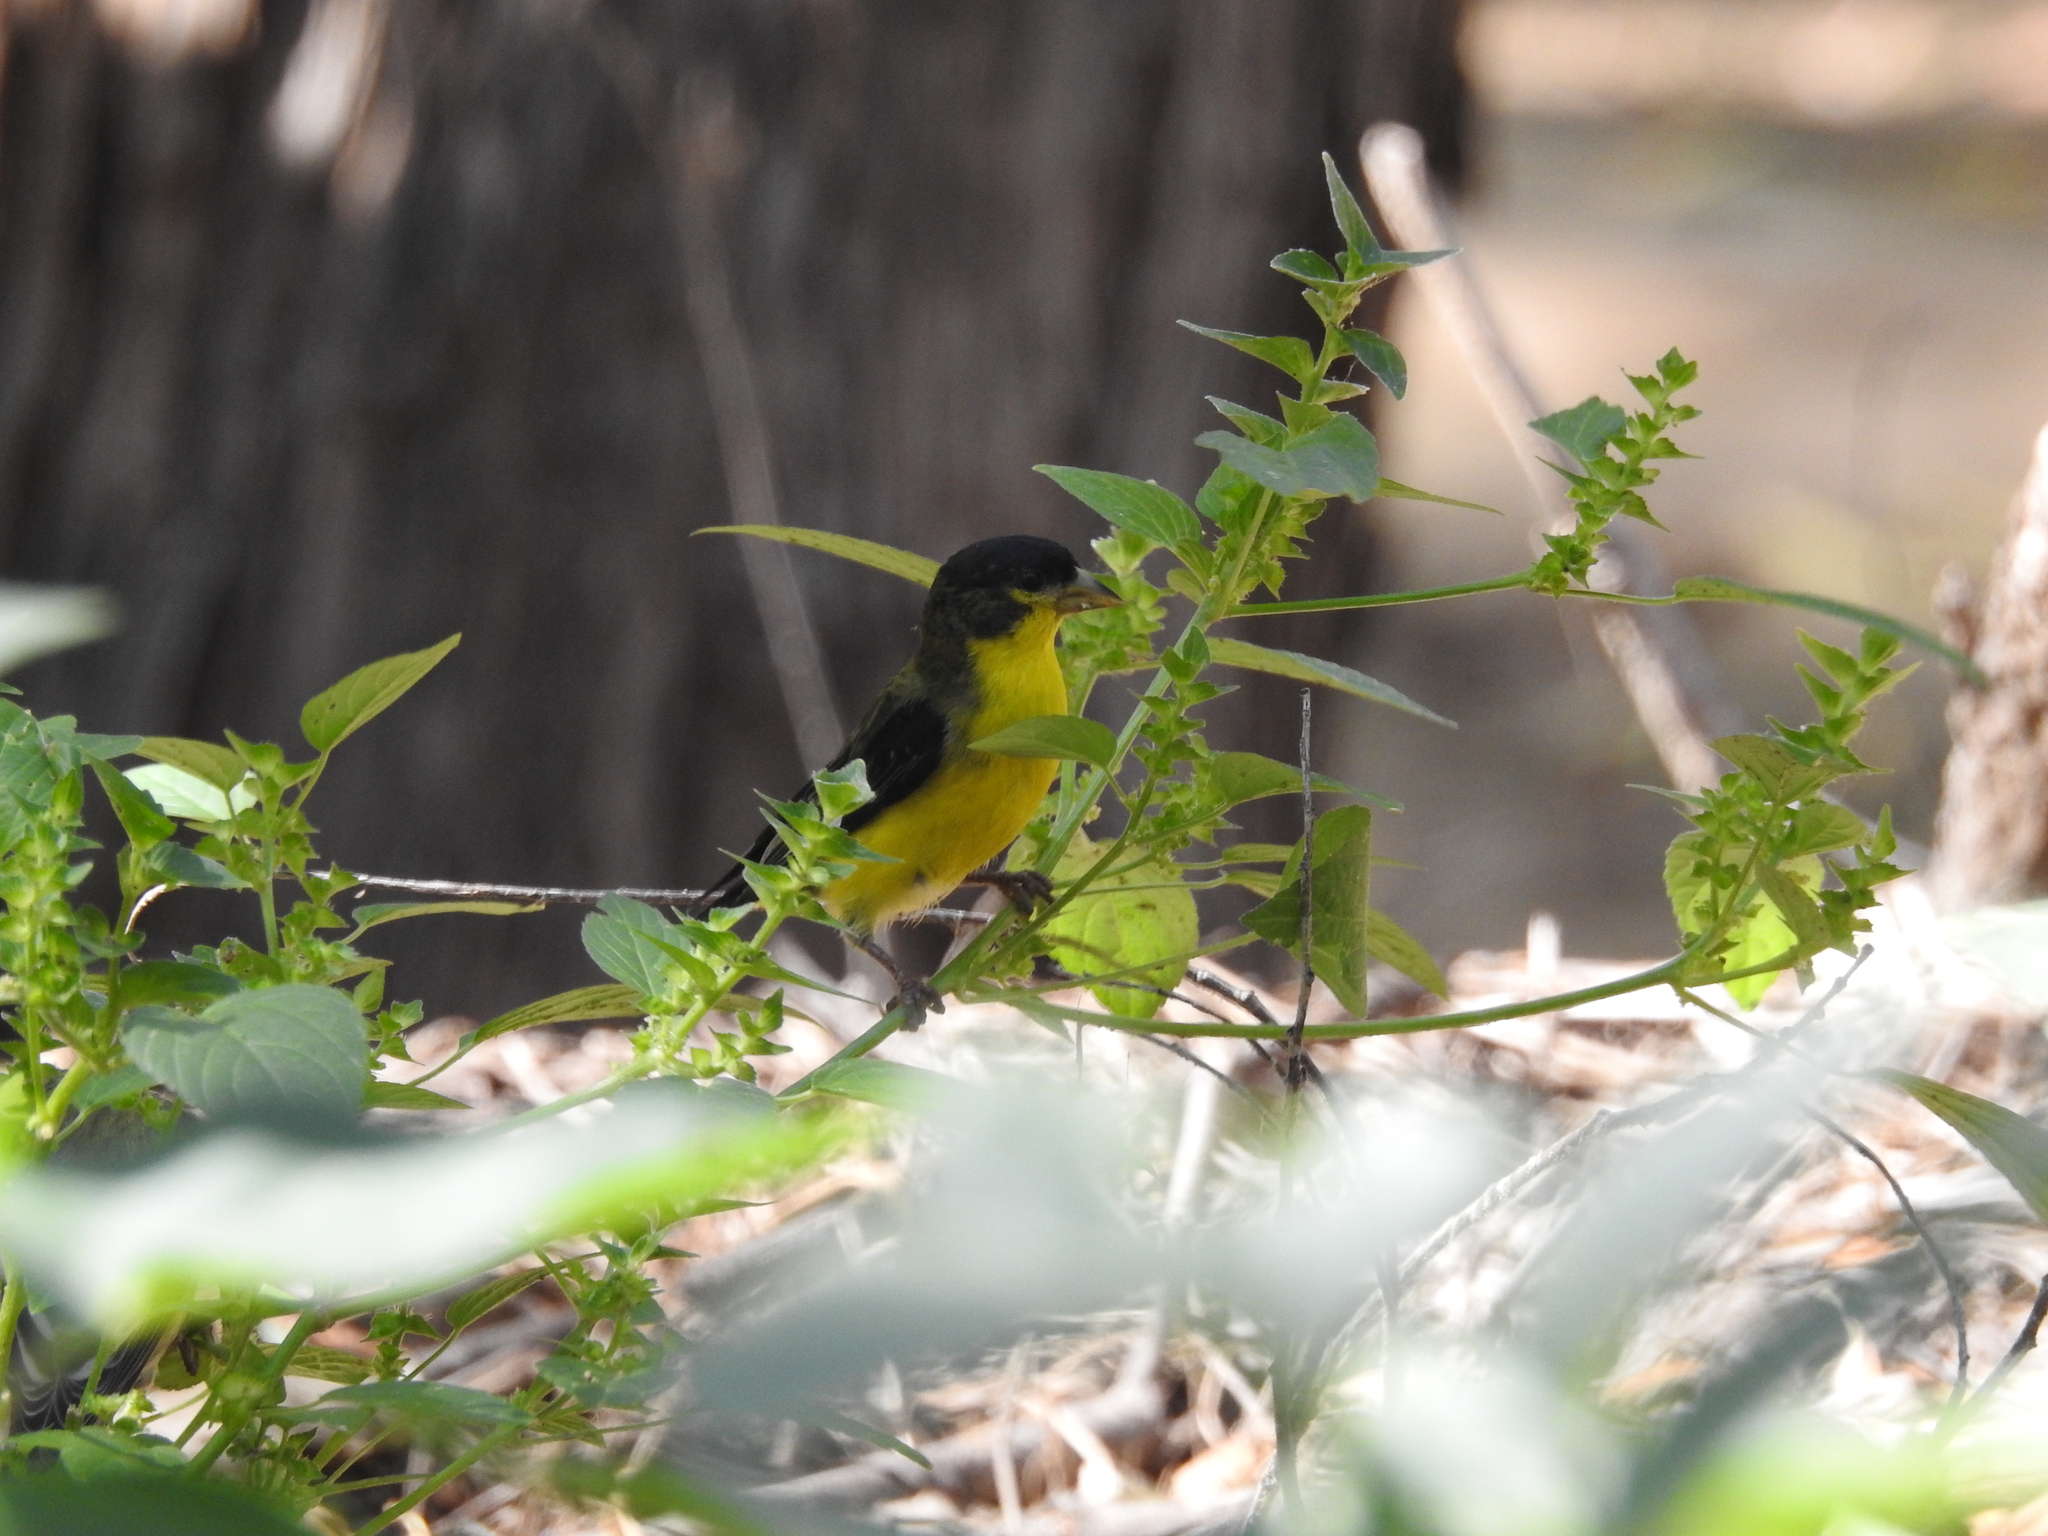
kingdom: Animalia
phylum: Chordata
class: Aves
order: Passeriformes
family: Fringillidae
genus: Spinus
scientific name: Spinus psaltria
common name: Lesser goldfinch
